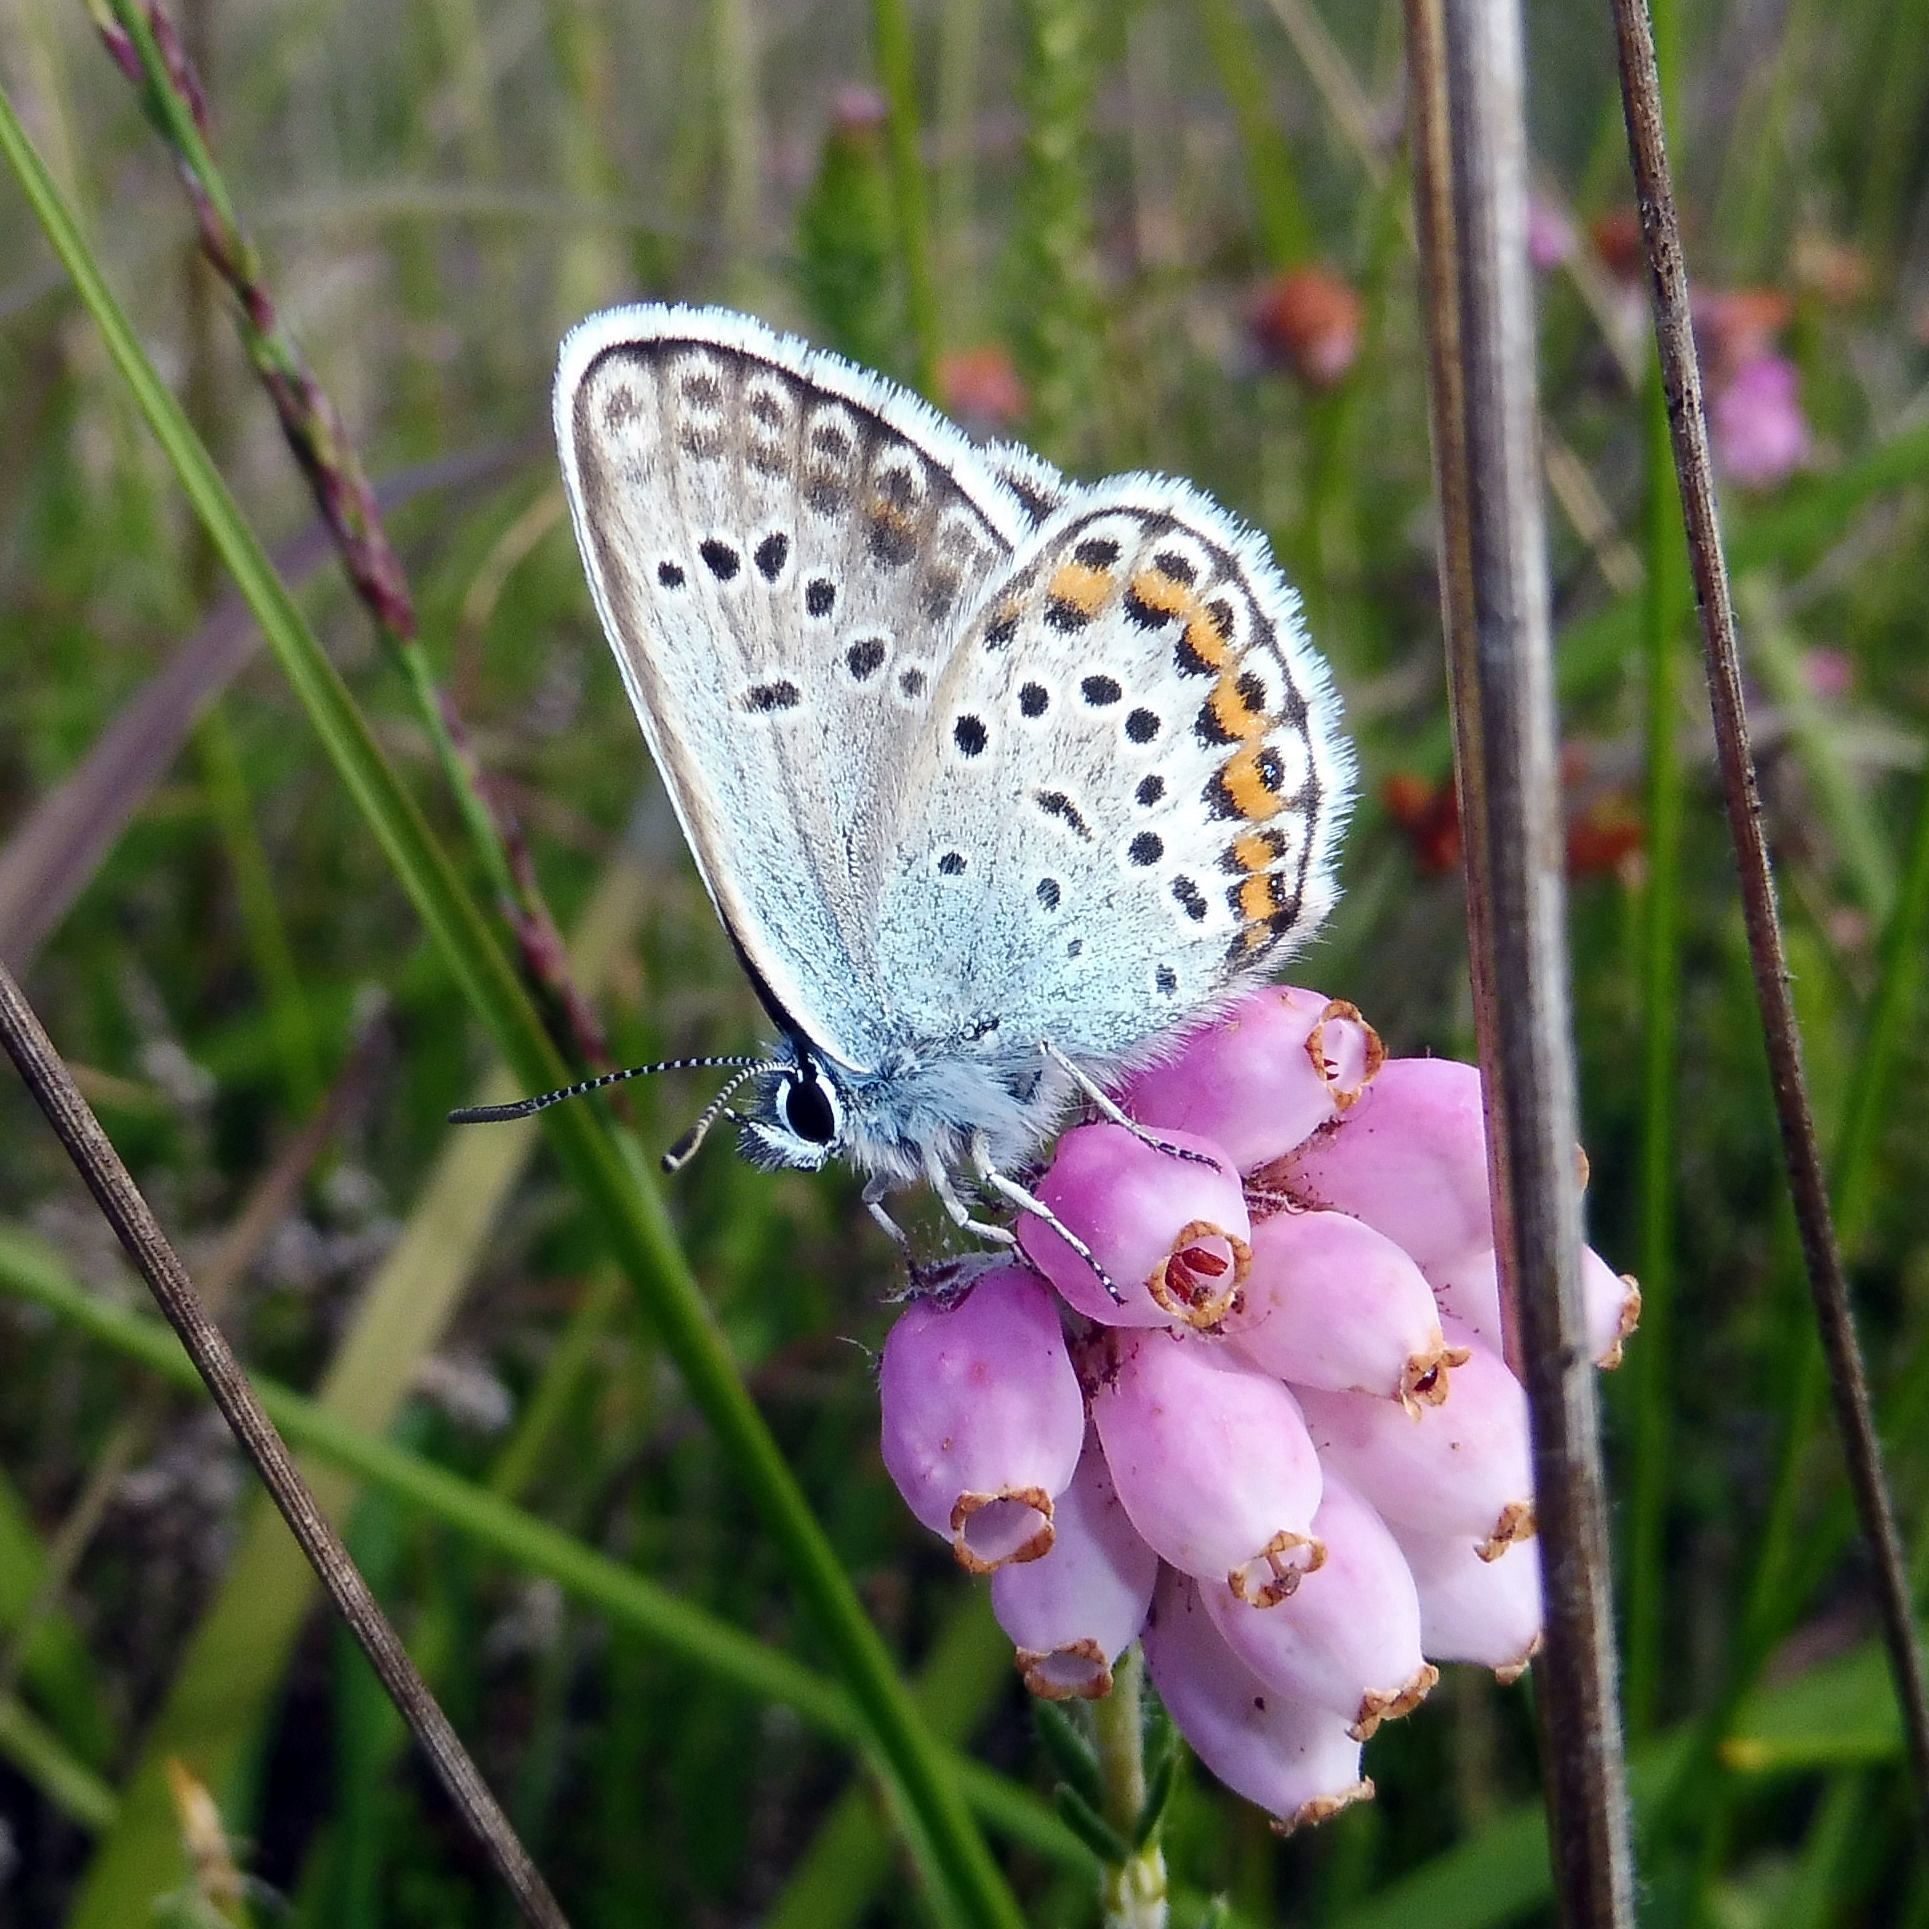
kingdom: Animalia
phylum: Arthropoda
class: Insecta
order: Lepidoptera
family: Lycaenidae
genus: Plebejus
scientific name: Plebejus argus
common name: Silver-studded blue
